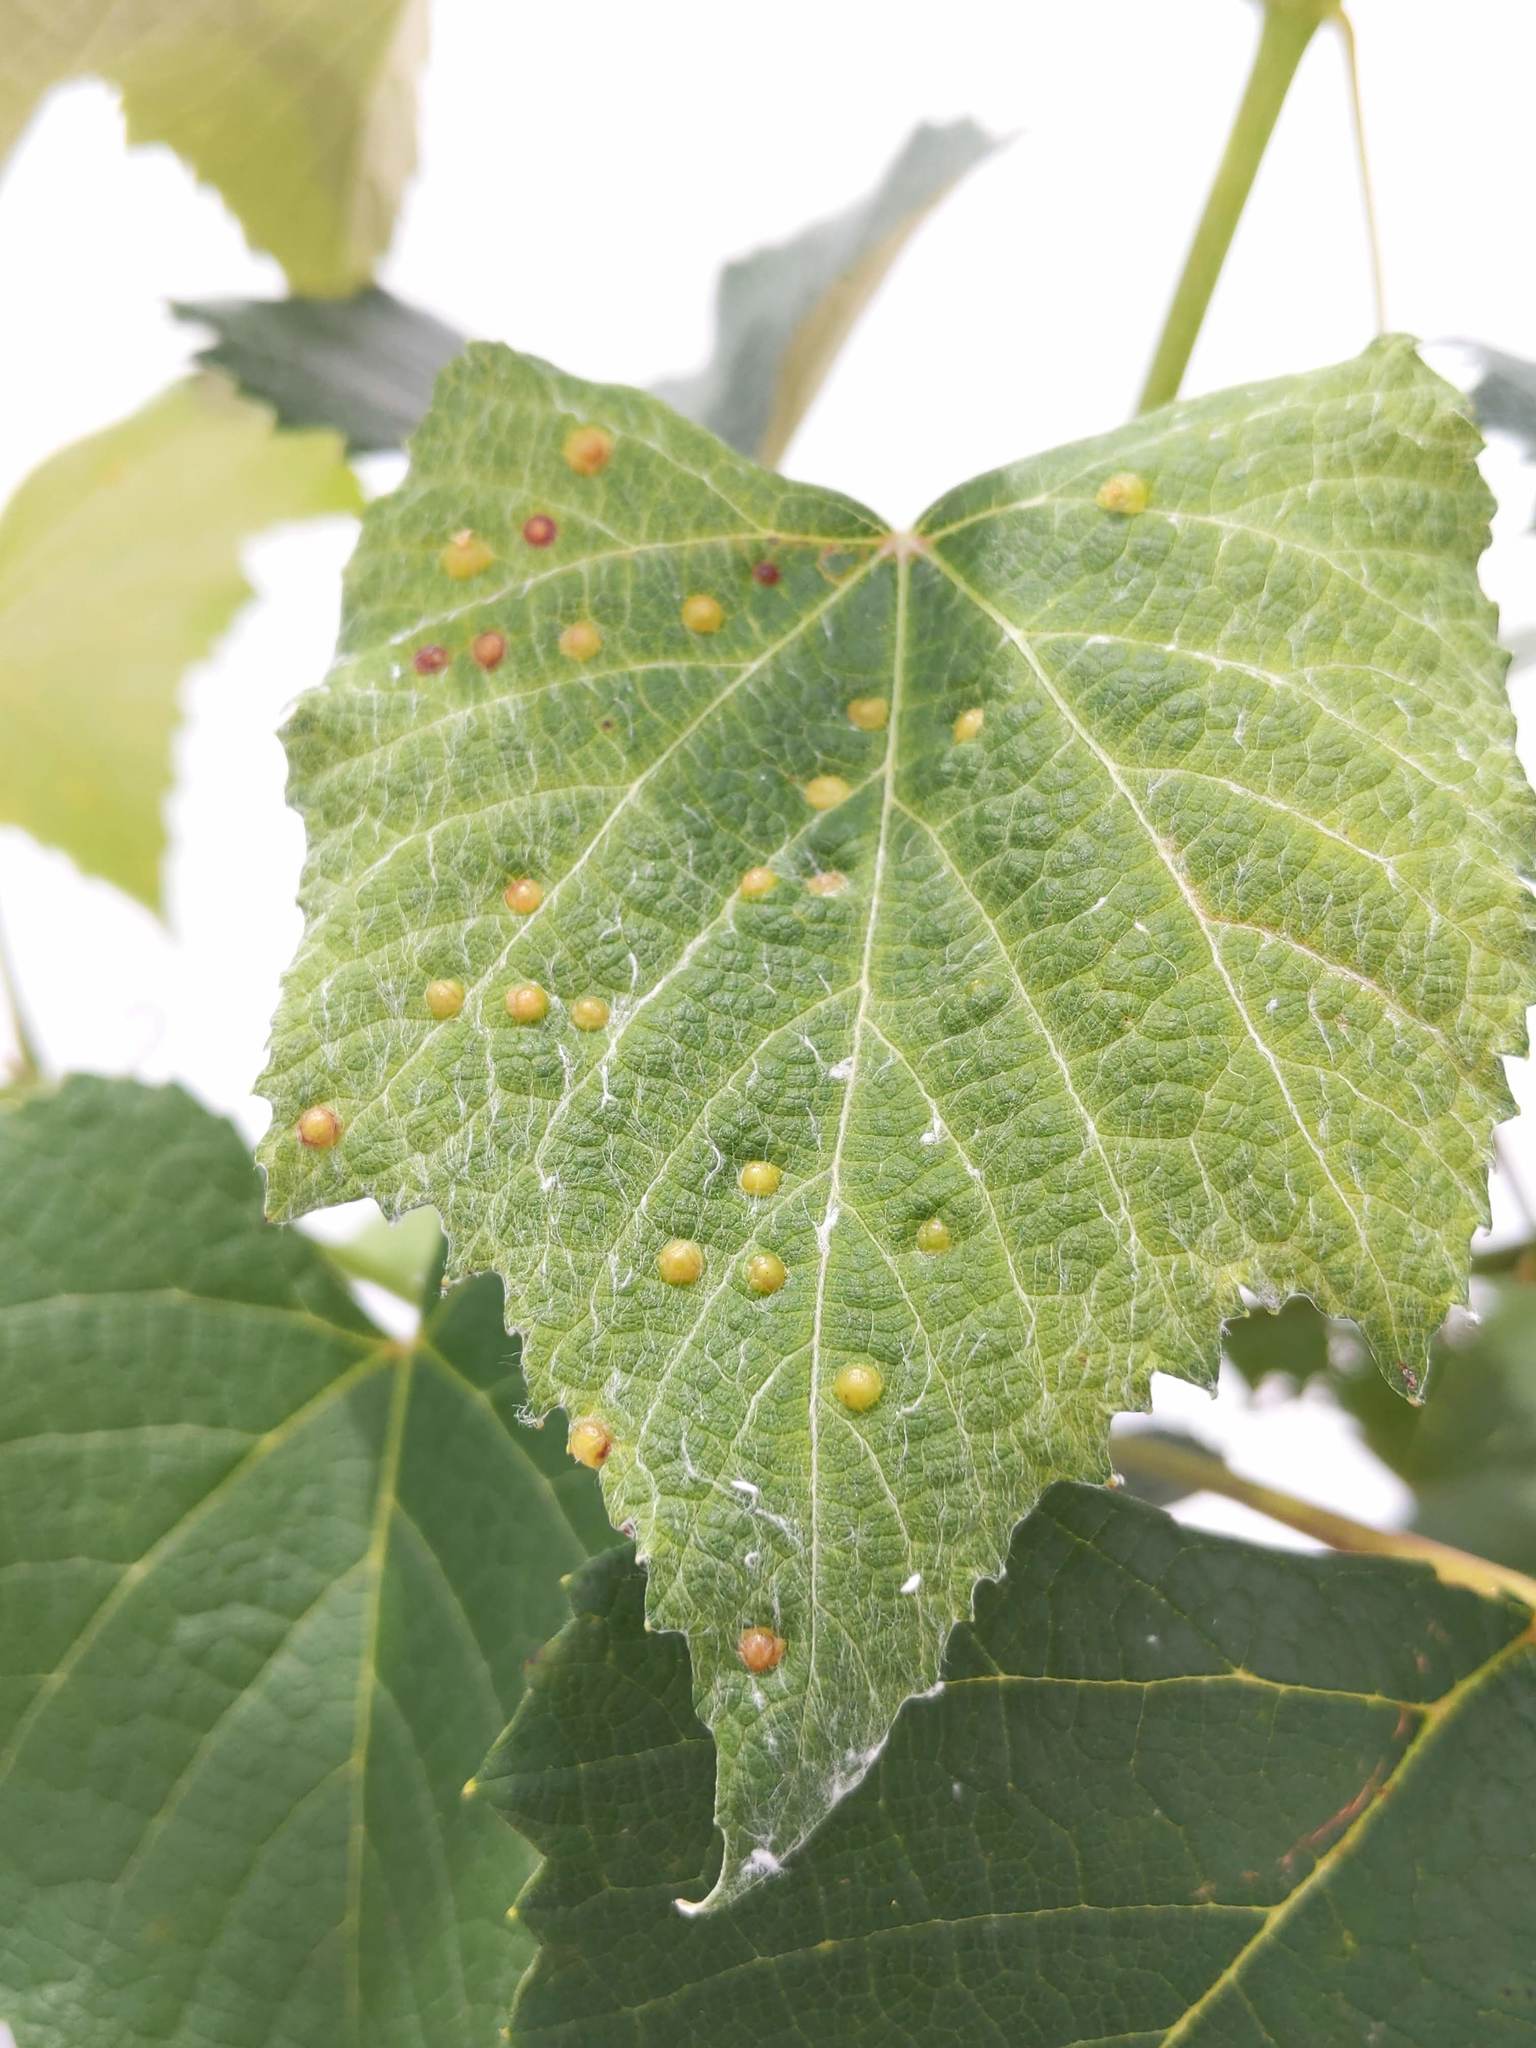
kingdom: Animalia
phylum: Arthropoda
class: Insecta
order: Diptera
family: Cecidomyiidae
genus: Dasineura
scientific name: Dasineura
